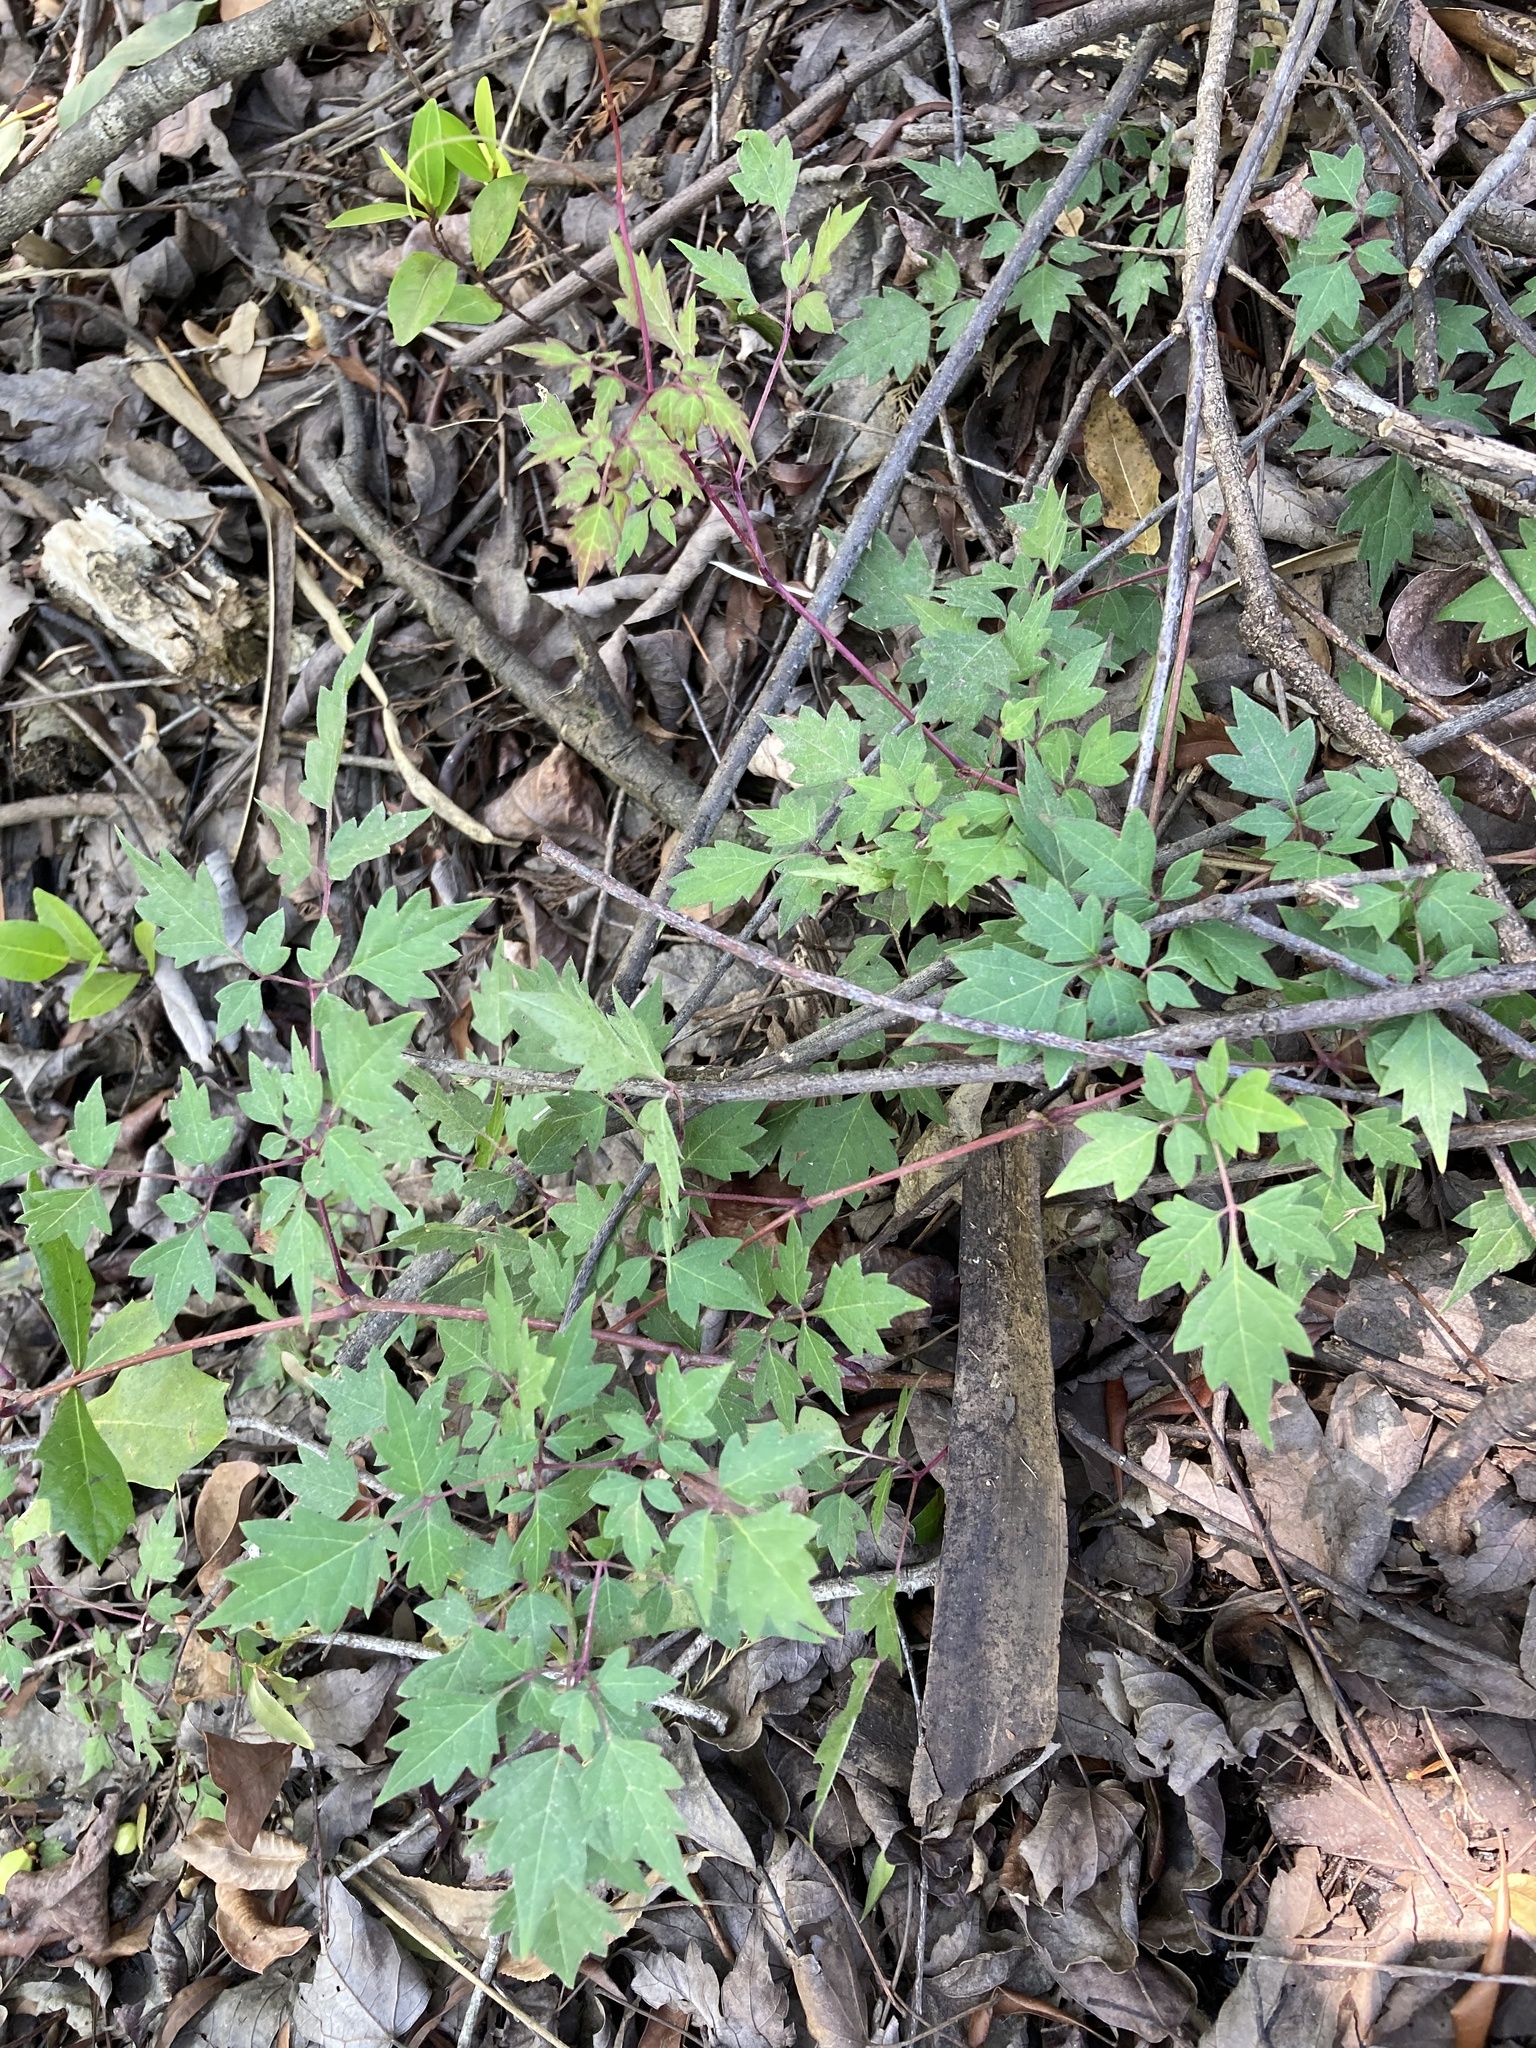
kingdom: Plantae
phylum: Tracheophyta
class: Magnoliopsida
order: Vitales
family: Vitaceae
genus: Nekemias
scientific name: Nekemias arborea
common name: Peppervine
